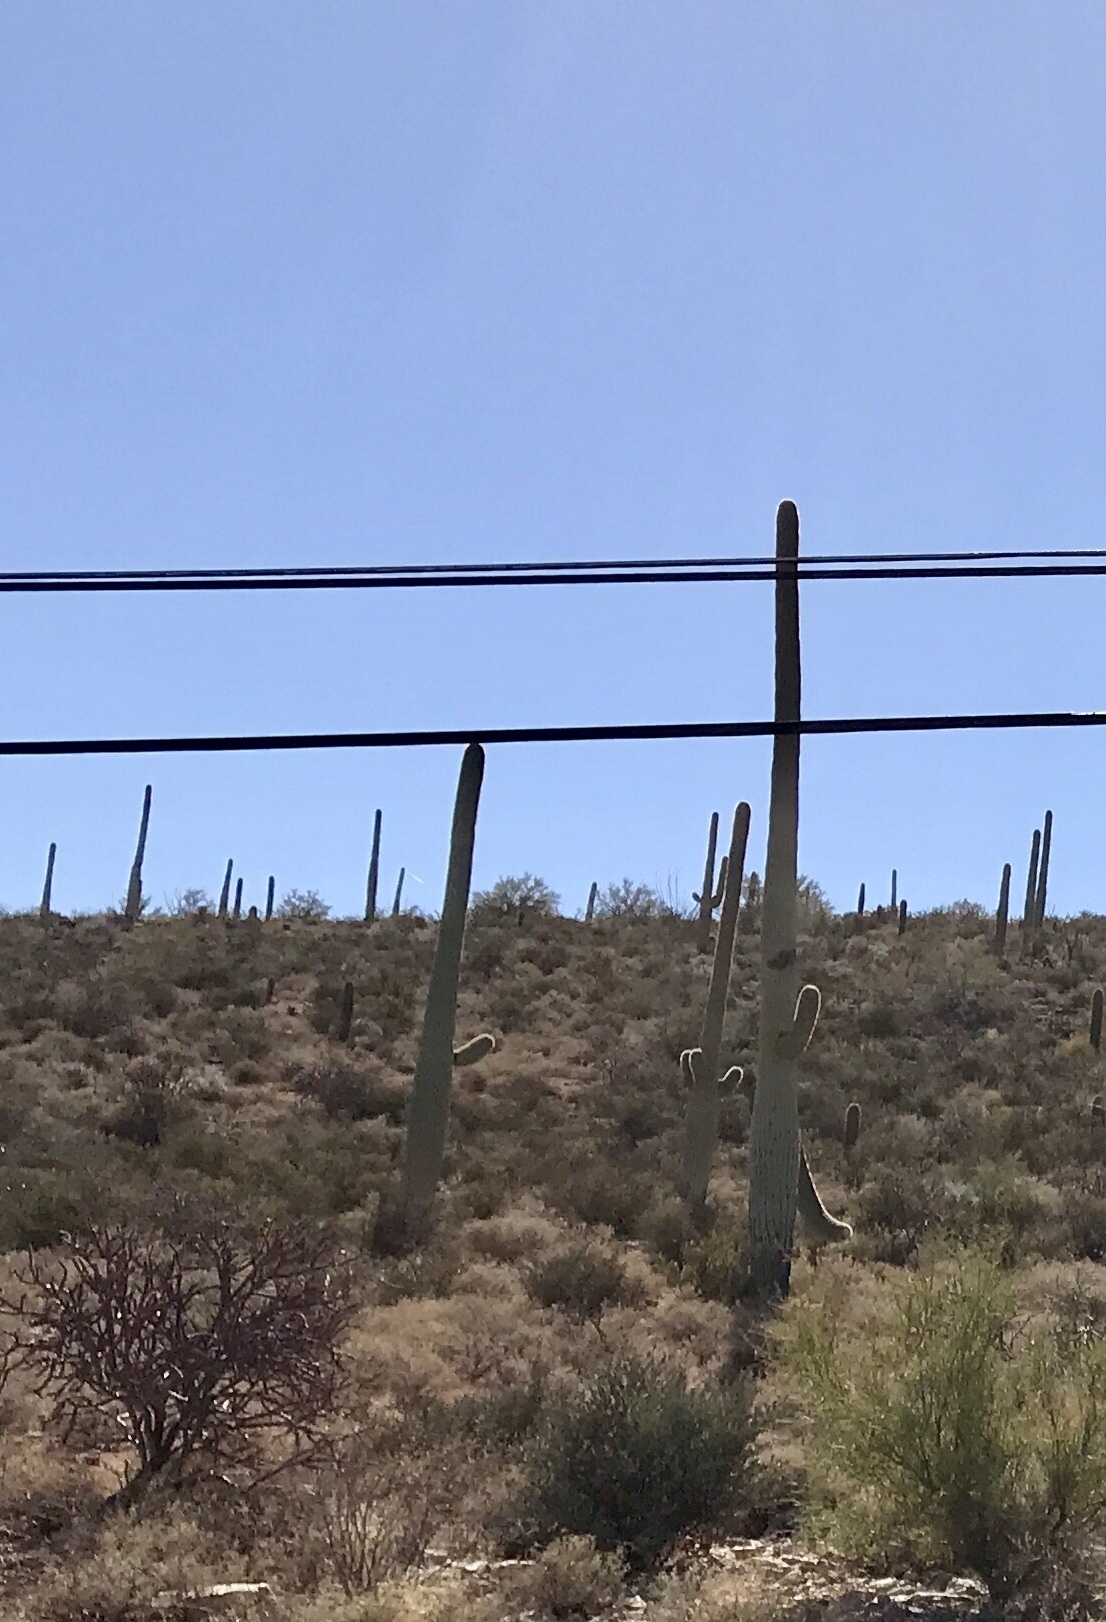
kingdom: Plantae
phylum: Tracheophyta
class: Magnoliopsida
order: Caryophyllales
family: Cactaceae
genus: Carnegiea
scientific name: Carnegiea gigantea
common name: Saguaro
